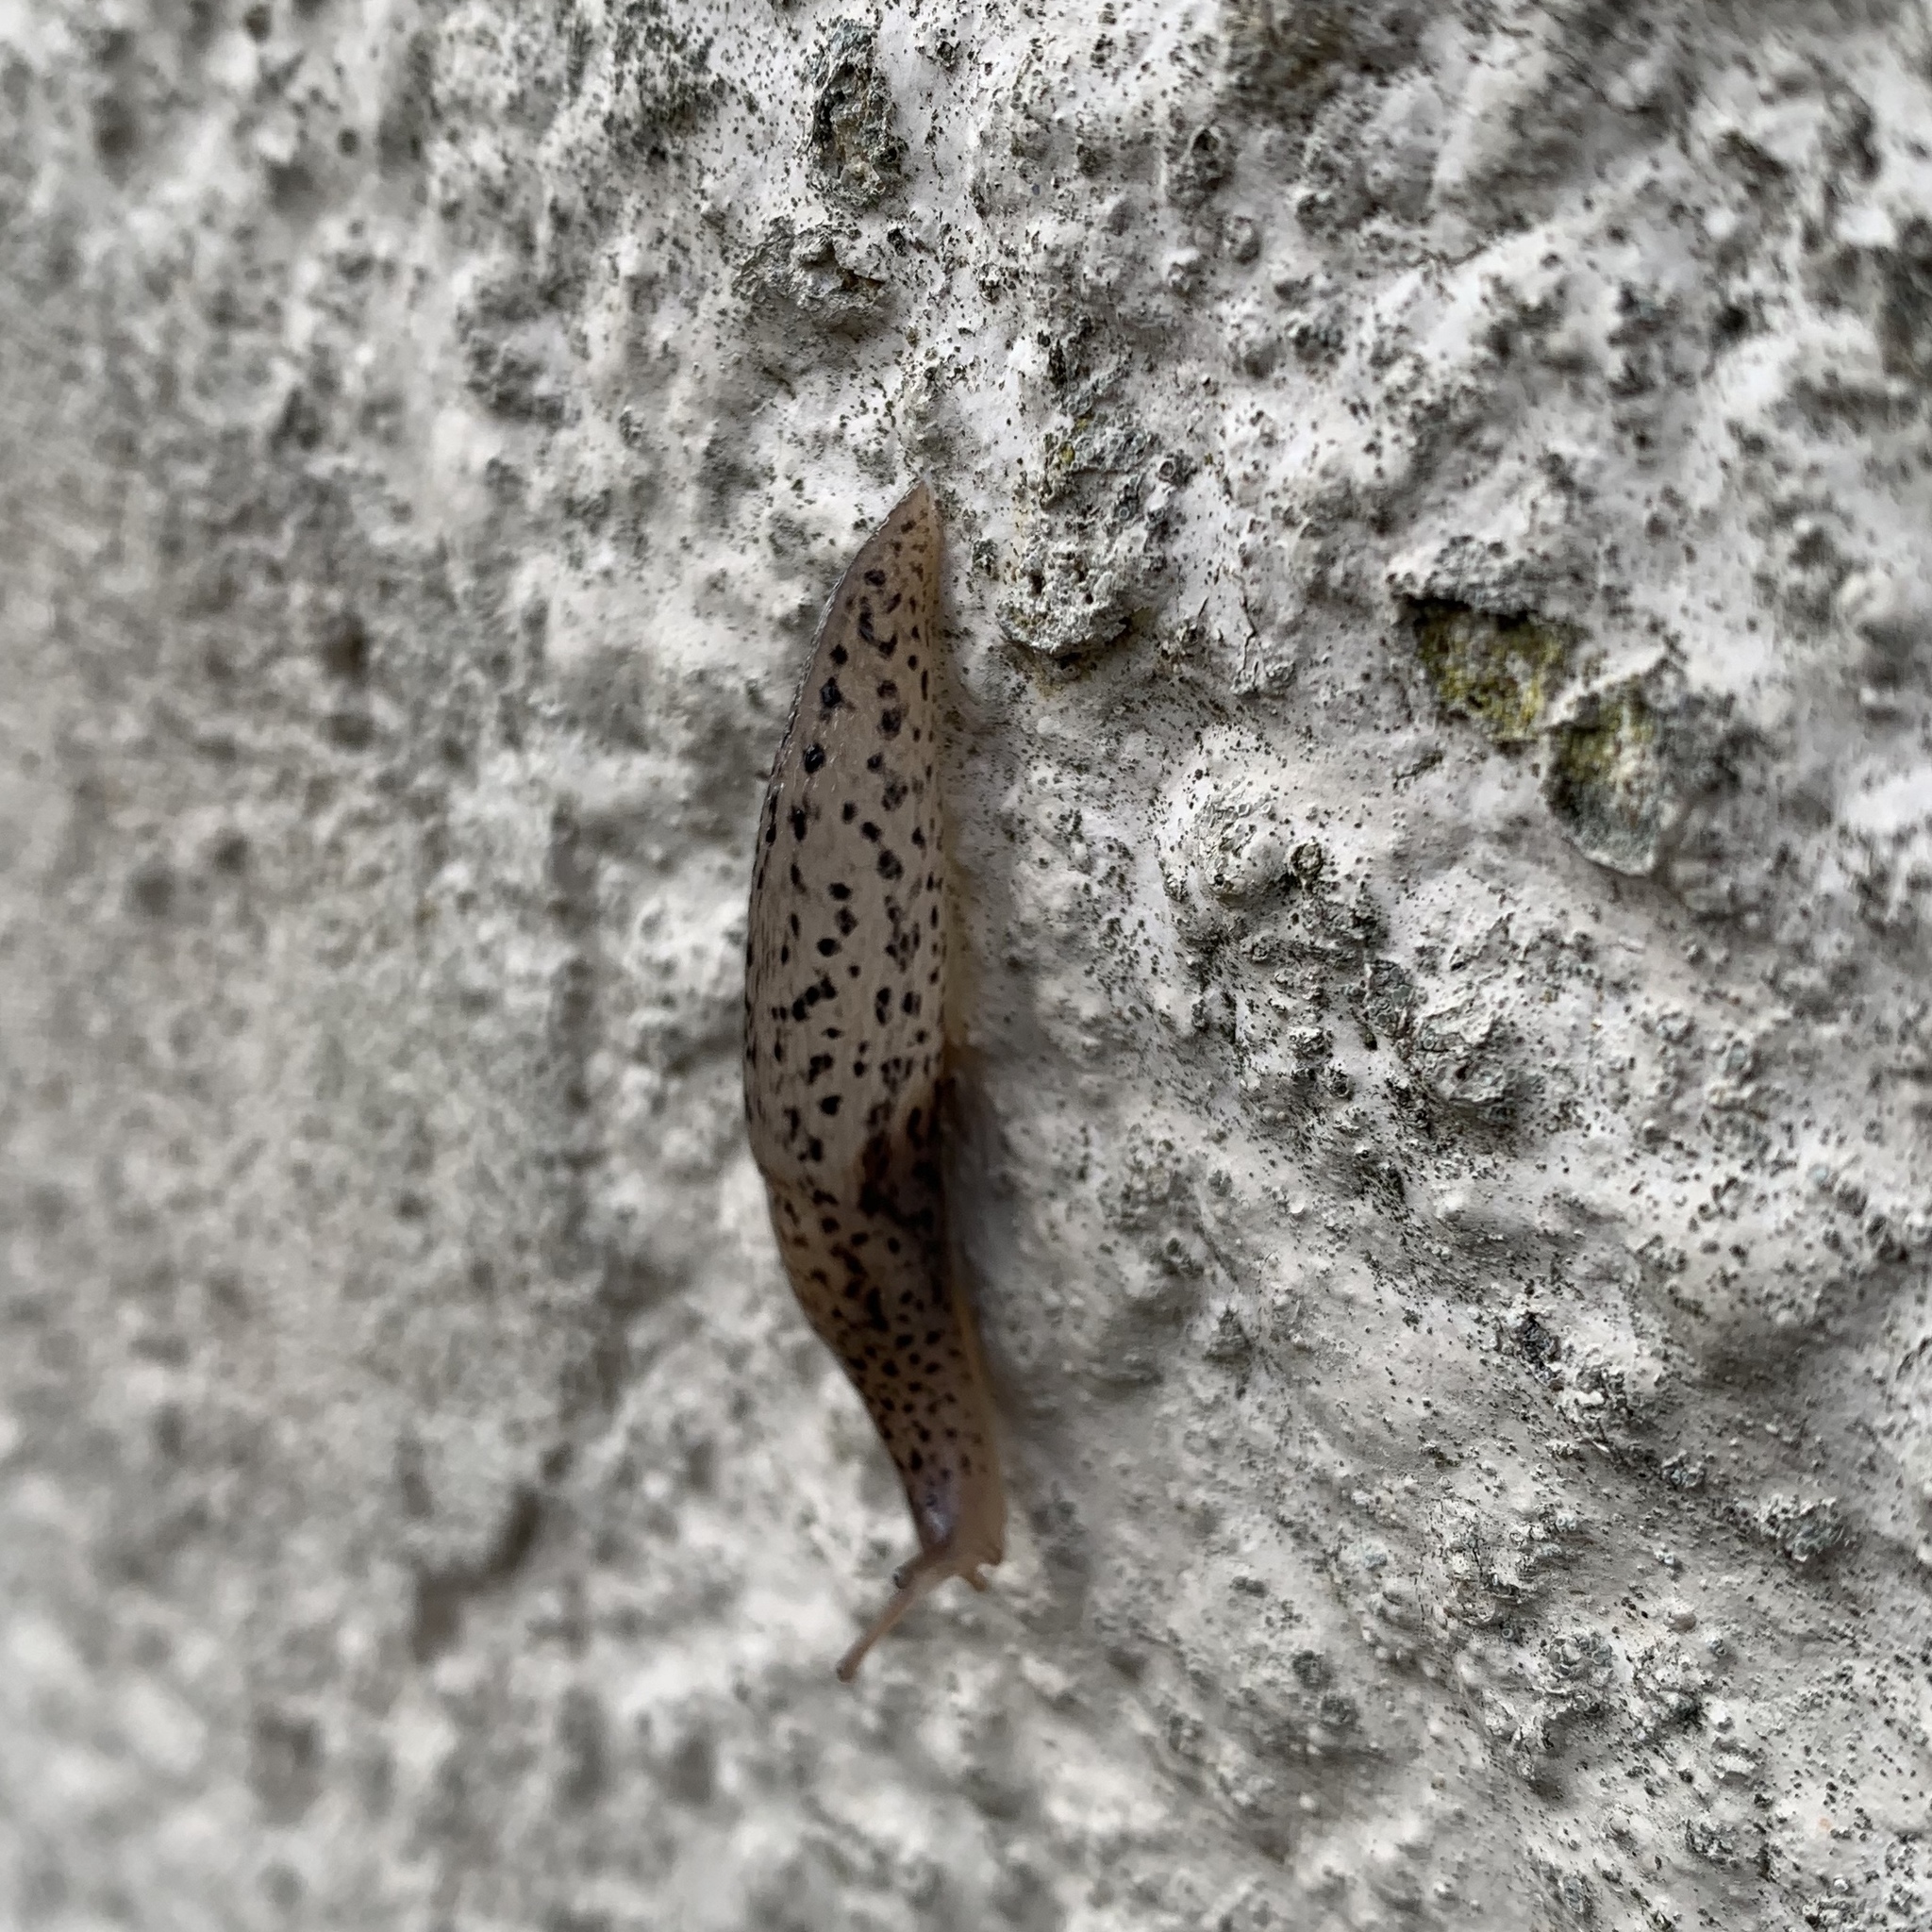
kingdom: Animalia
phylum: Mollusca
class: Gastropoda
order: Stylommatophora
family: Limacidae
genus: Limax
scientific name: Limax maximus
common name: Great grey slug
